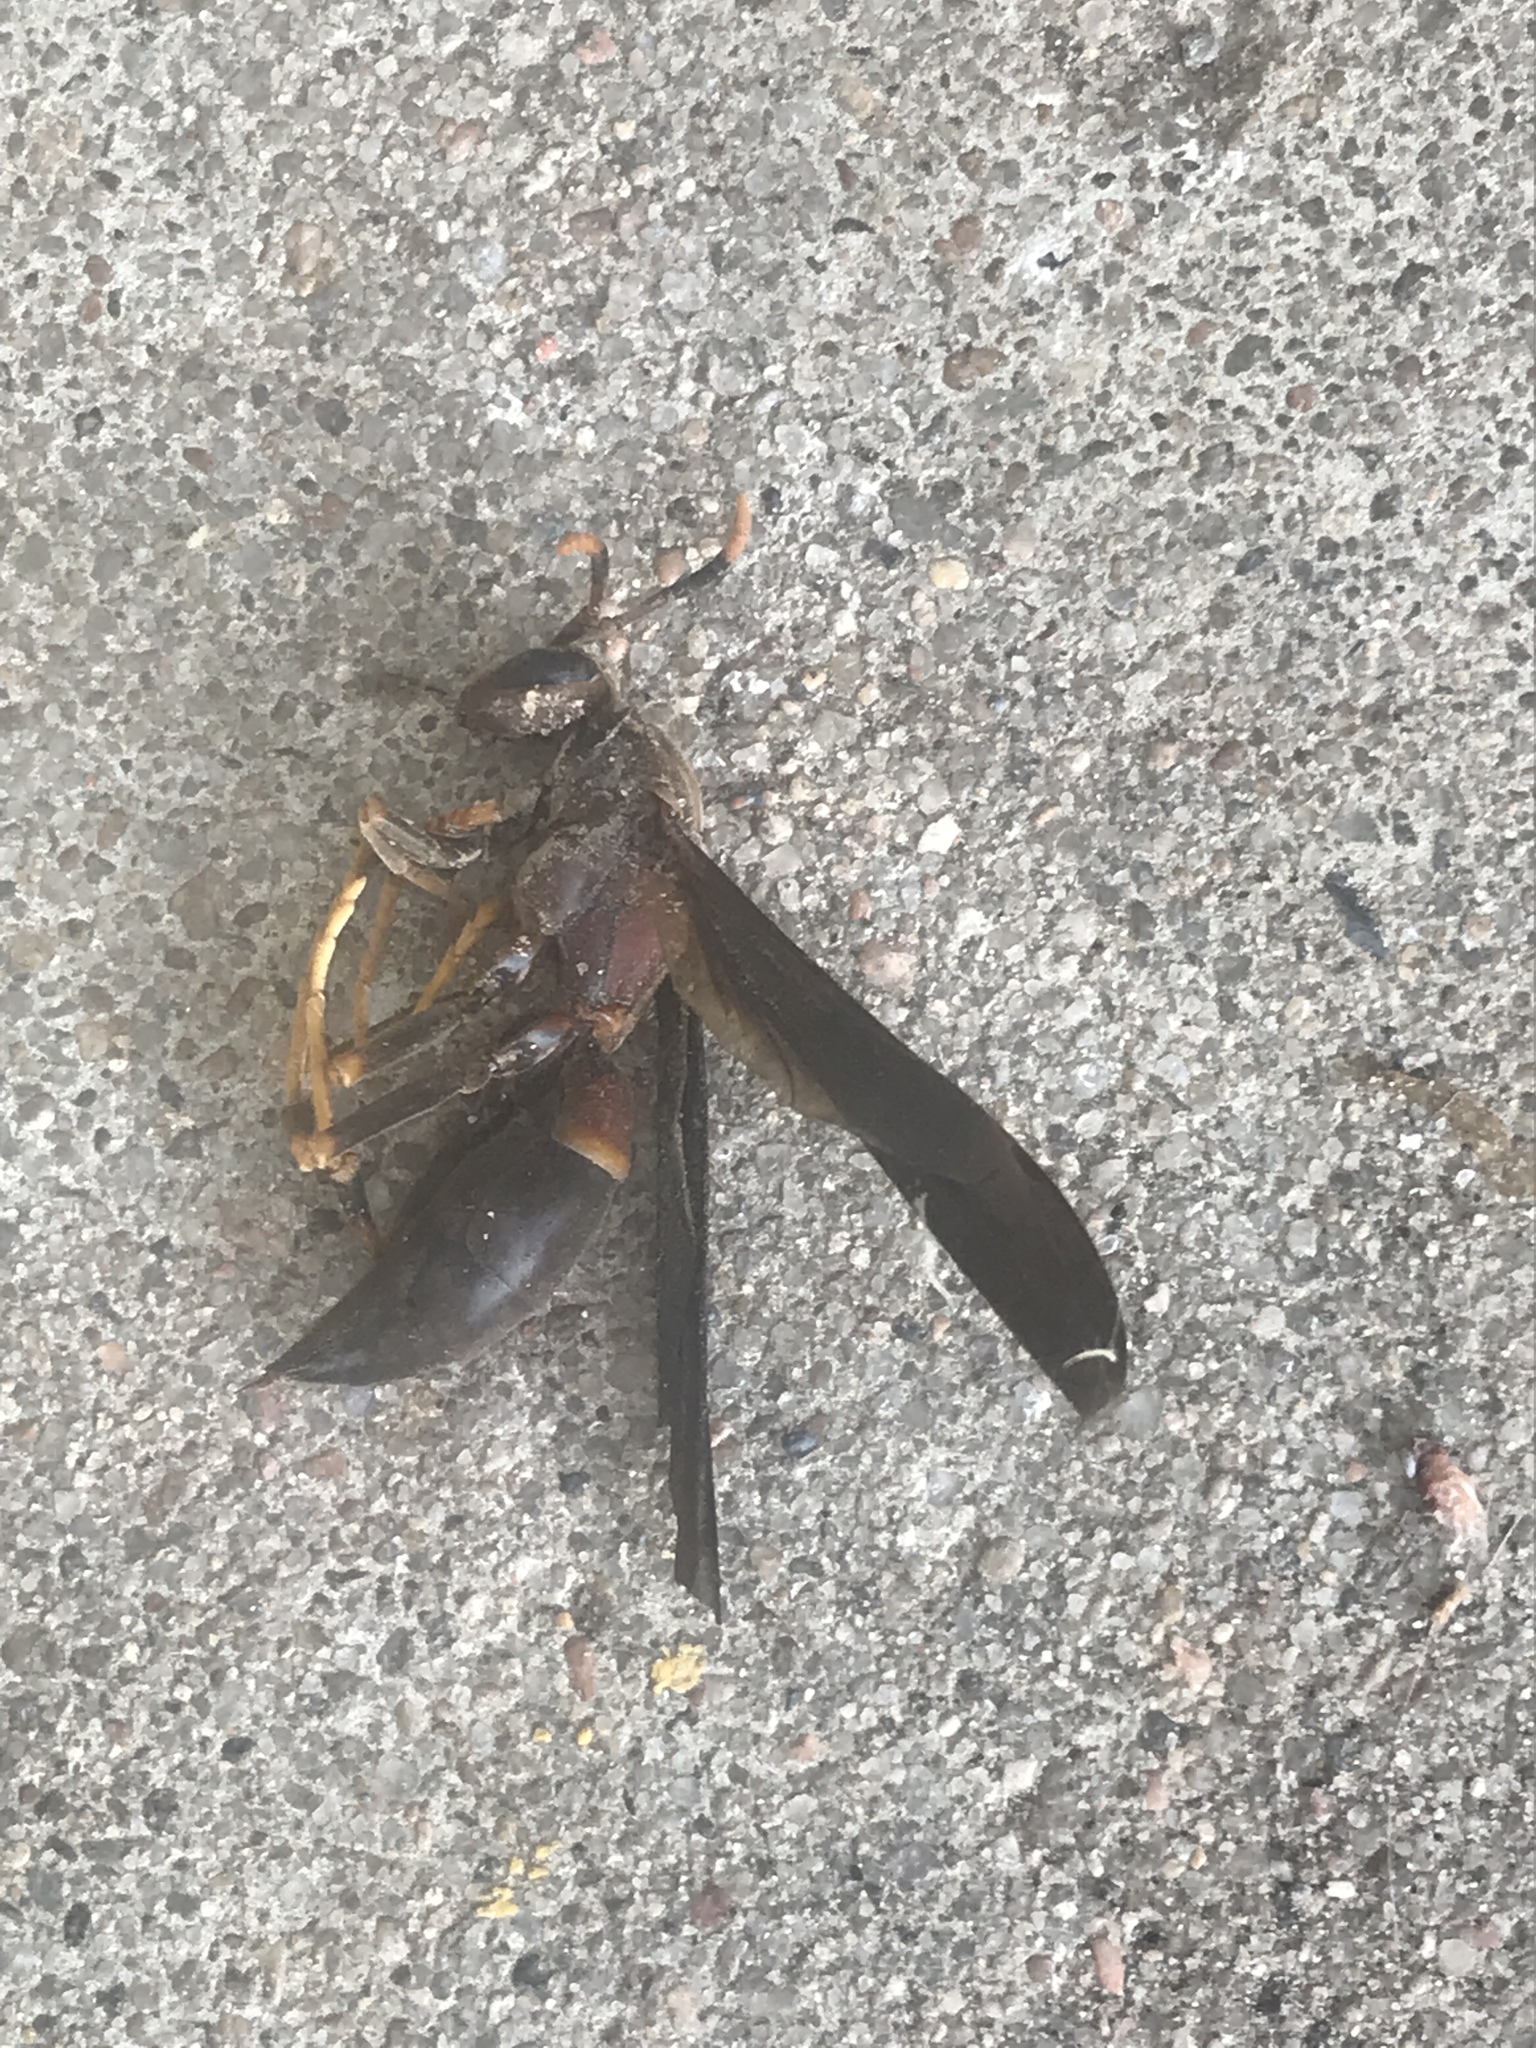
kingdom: Animalia
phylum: Arthropoda
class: Insecta
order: Hymenoptera
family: Eumenidae
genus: Polistes
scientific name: Polistes annularis
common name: Ringed paper wasp
